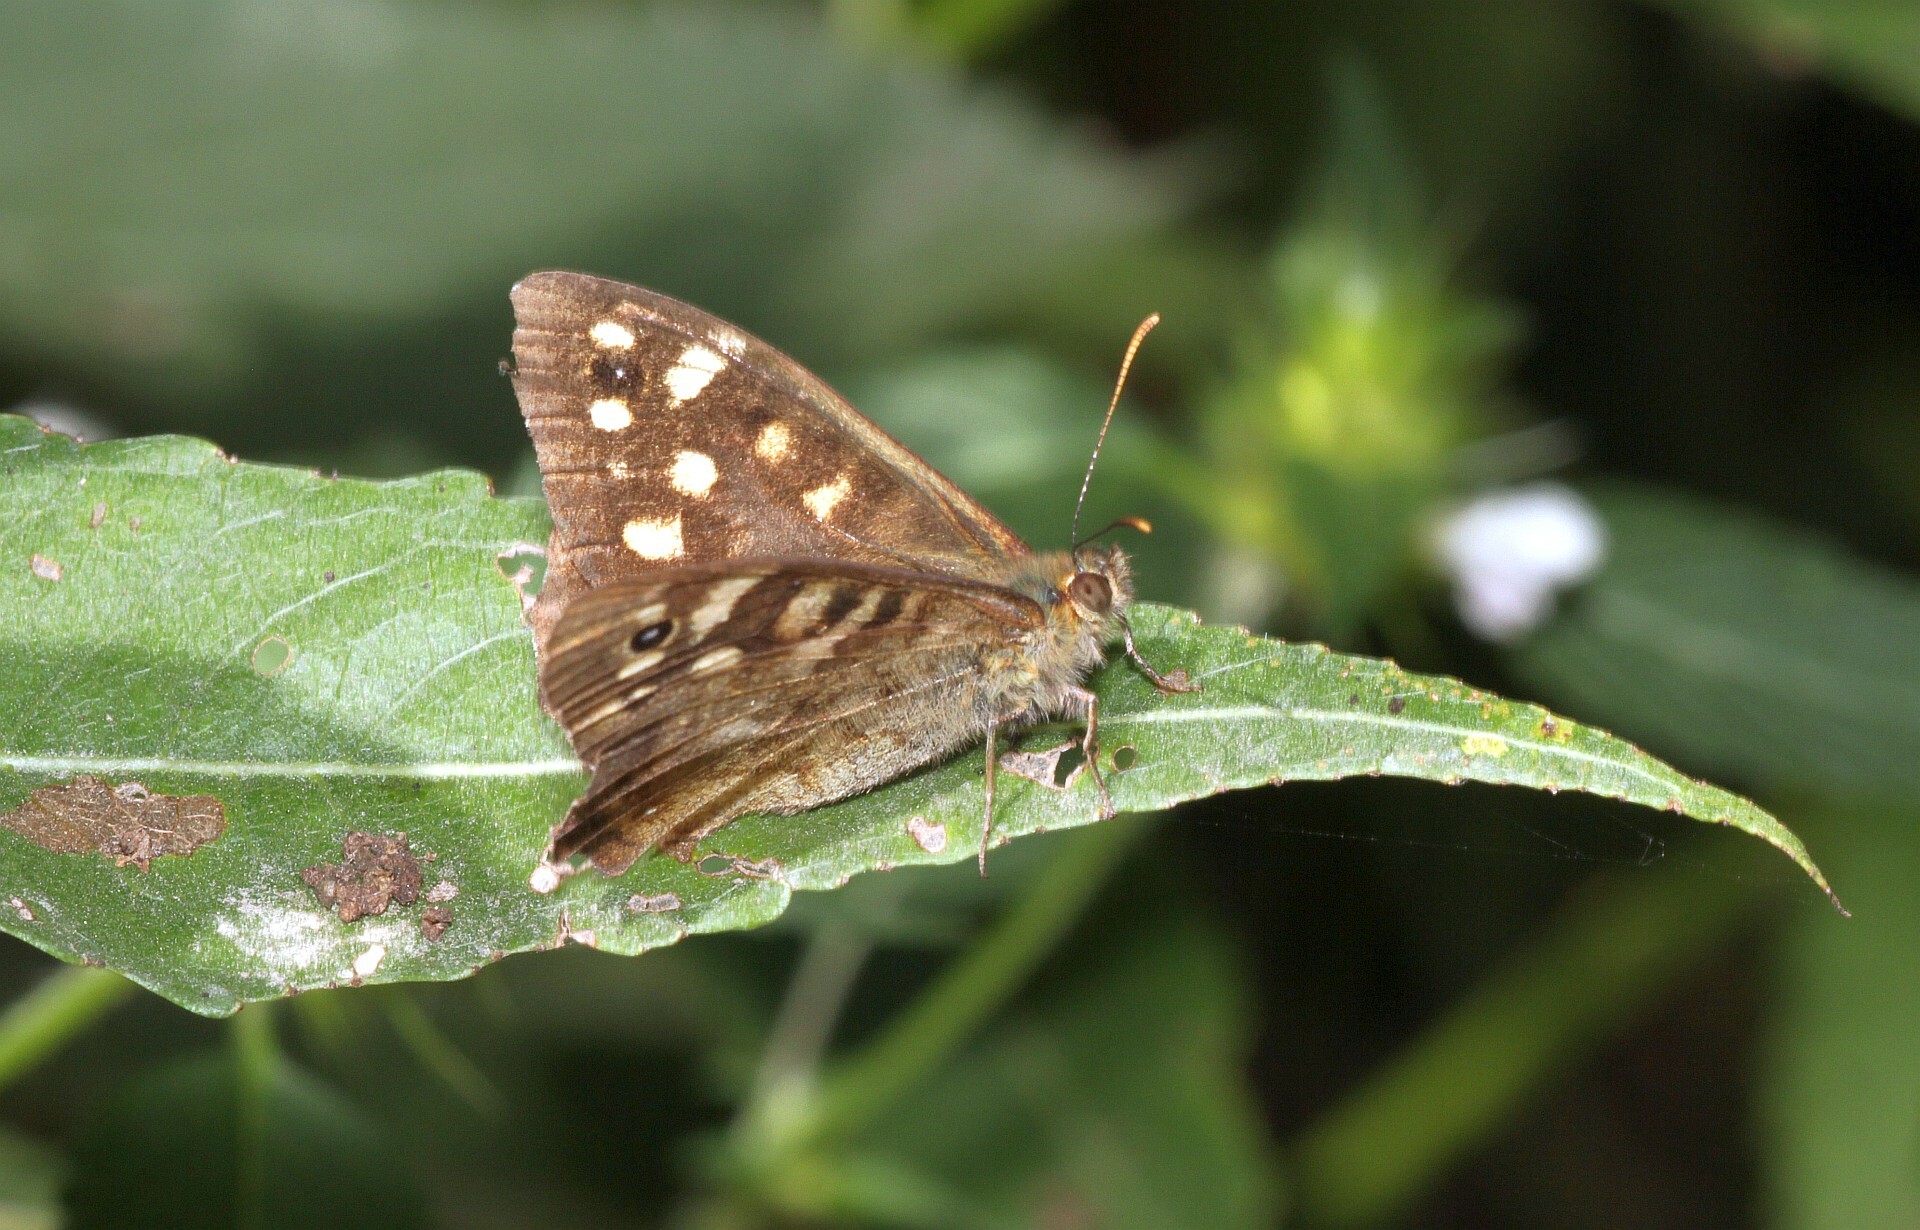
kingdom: Animalia
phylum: Arthropoda
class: Insecta
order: Lepidoptera
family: Nymphalidae
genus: Pararge
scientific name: Pararge aegeria
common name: Speckled wood
